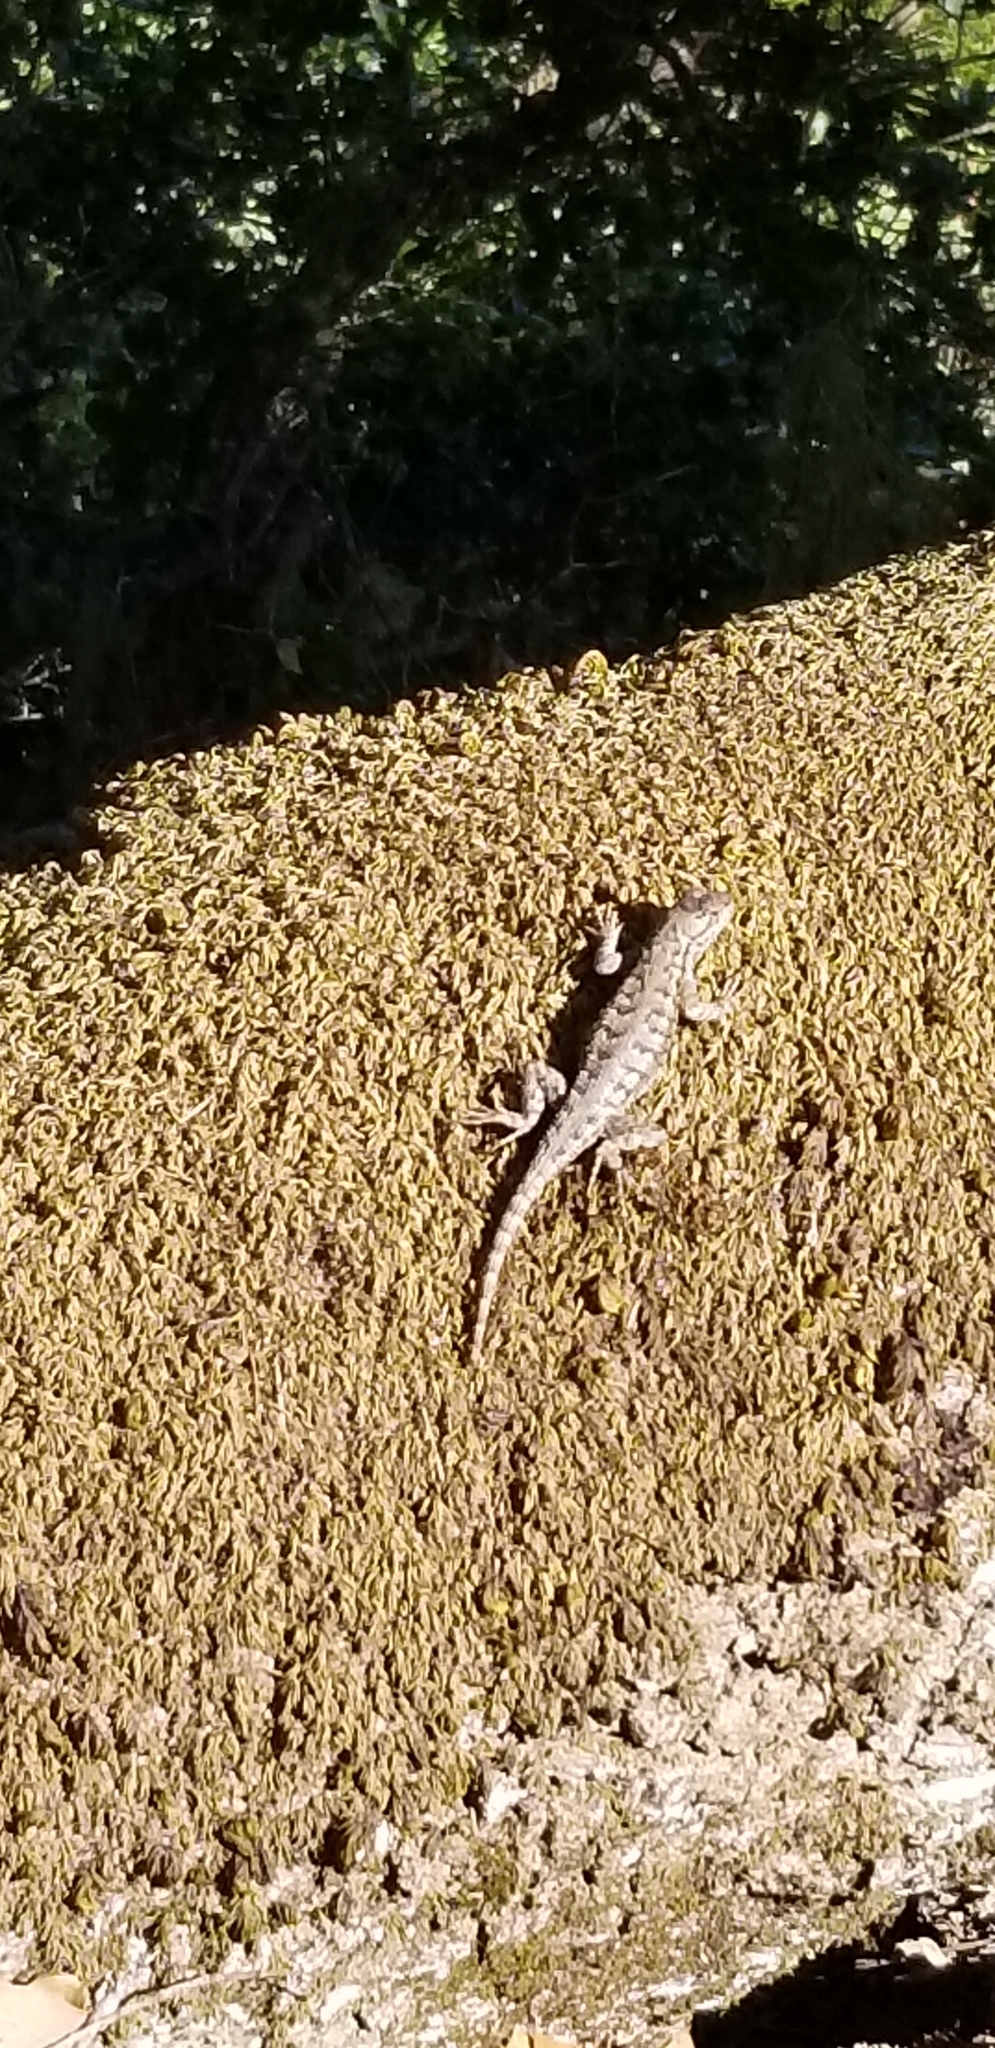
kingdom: Animalia
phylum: Chordata
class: Squamata
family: Phrynosomatidae
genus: Sceloporus
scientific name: Sceloporus occidentalis
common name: Western fence lizard
